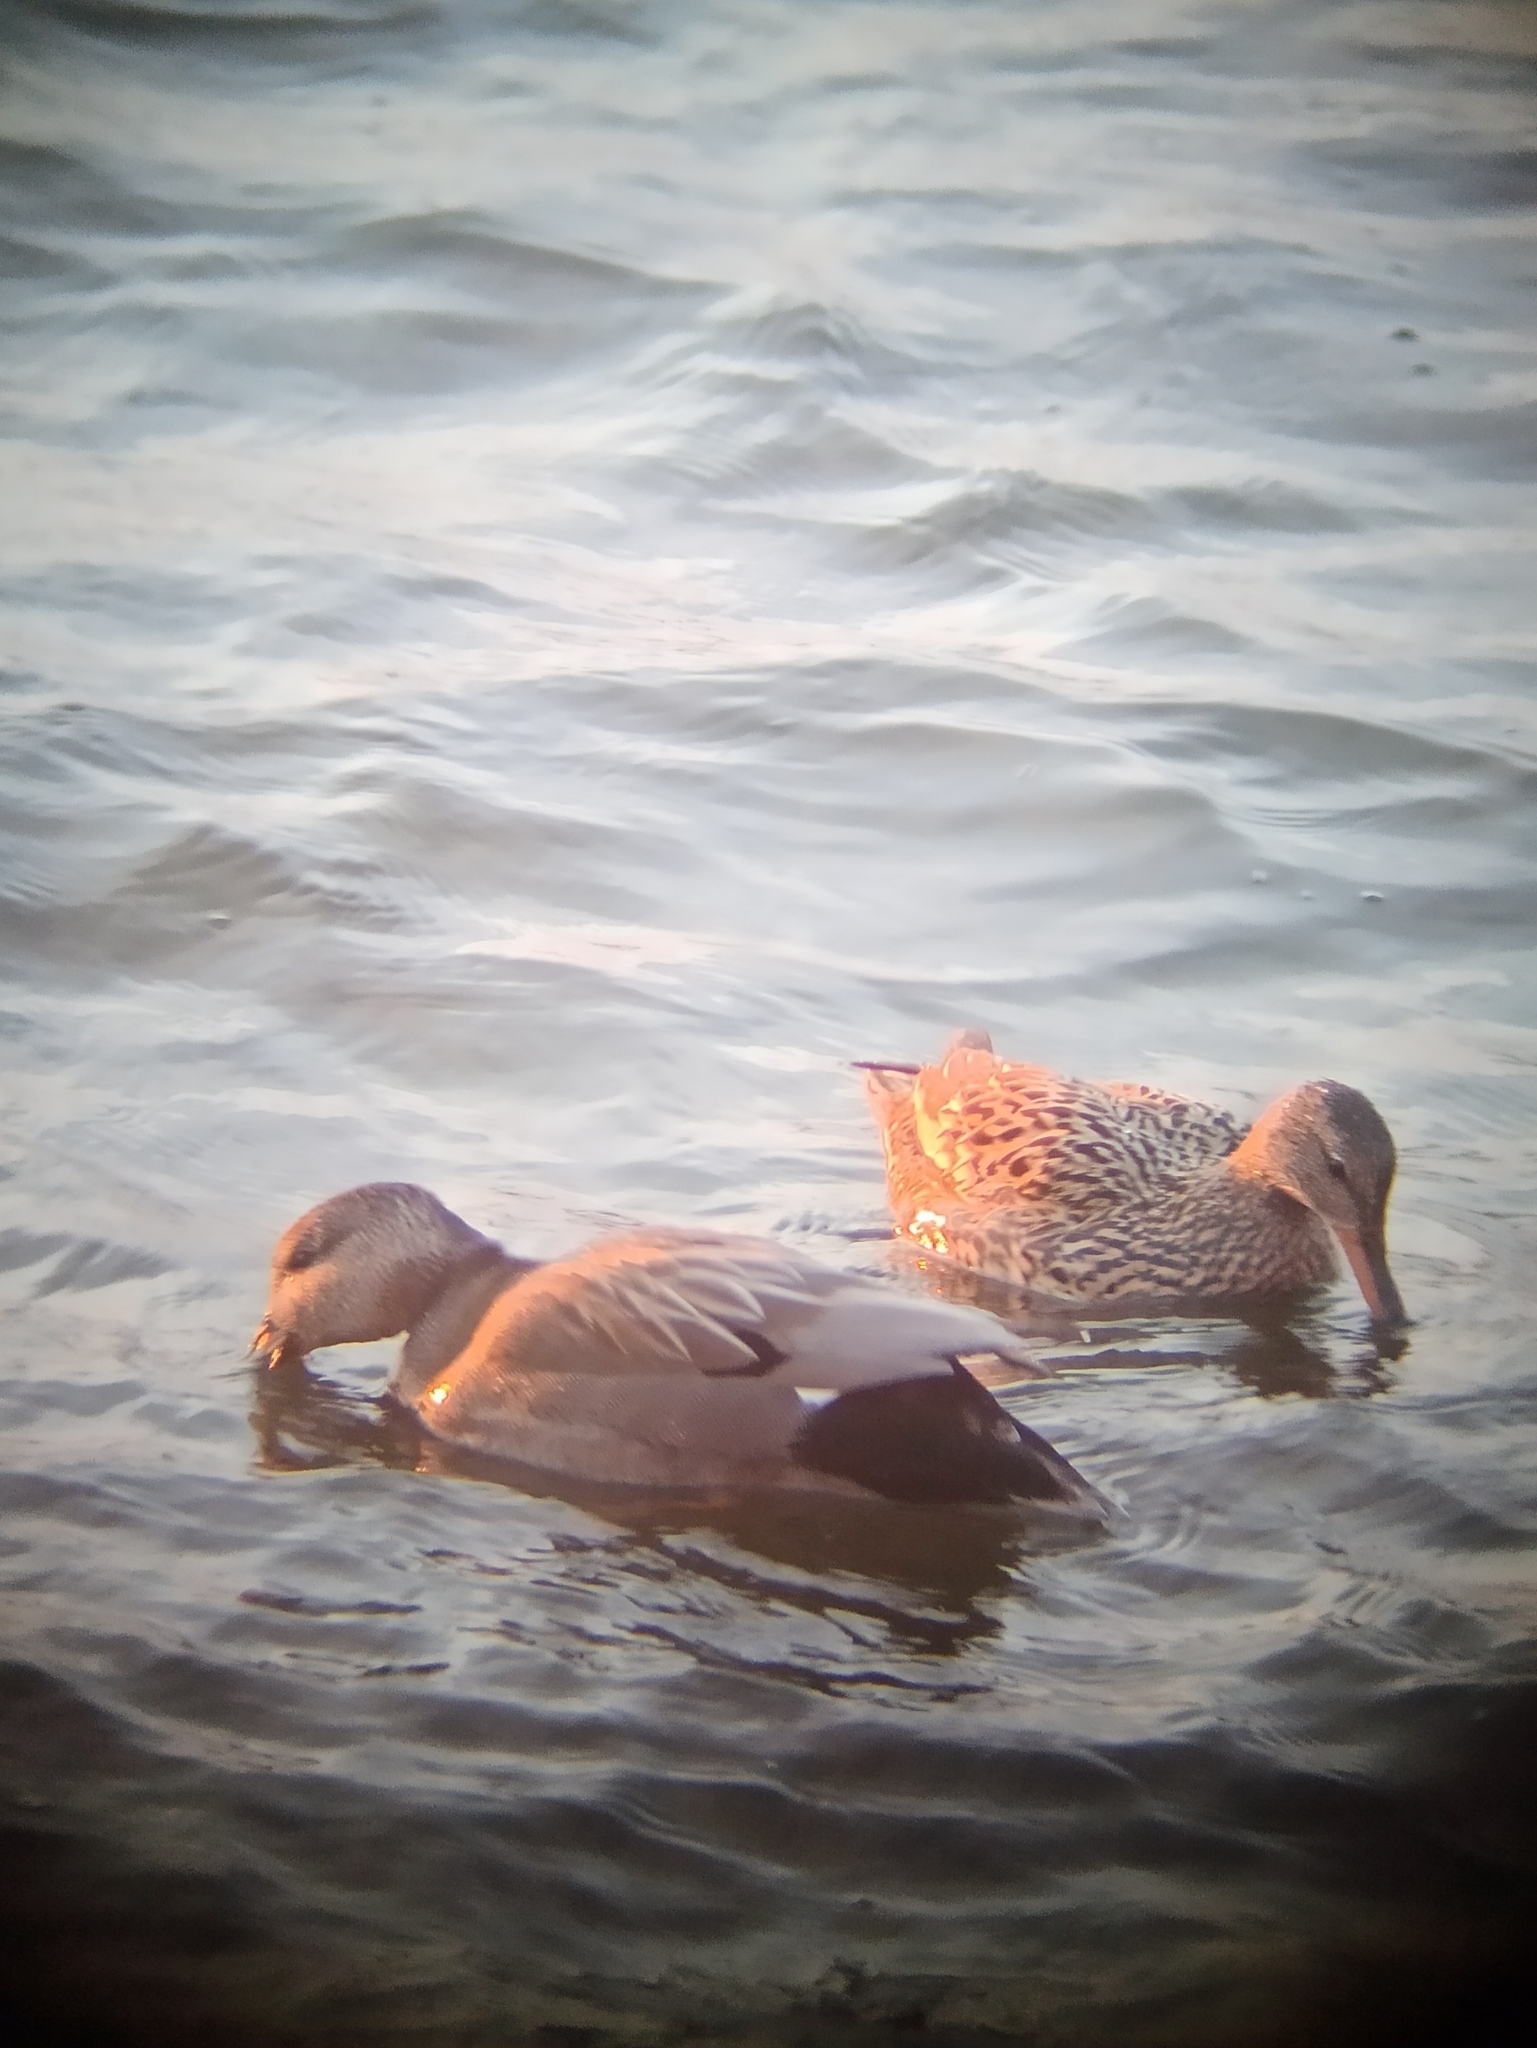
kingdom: Animalia
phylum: Chordata
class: Aves
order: Anseriformes
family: Anatidae
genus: Mareca
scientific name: Mareca strepera
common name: Gadwall
